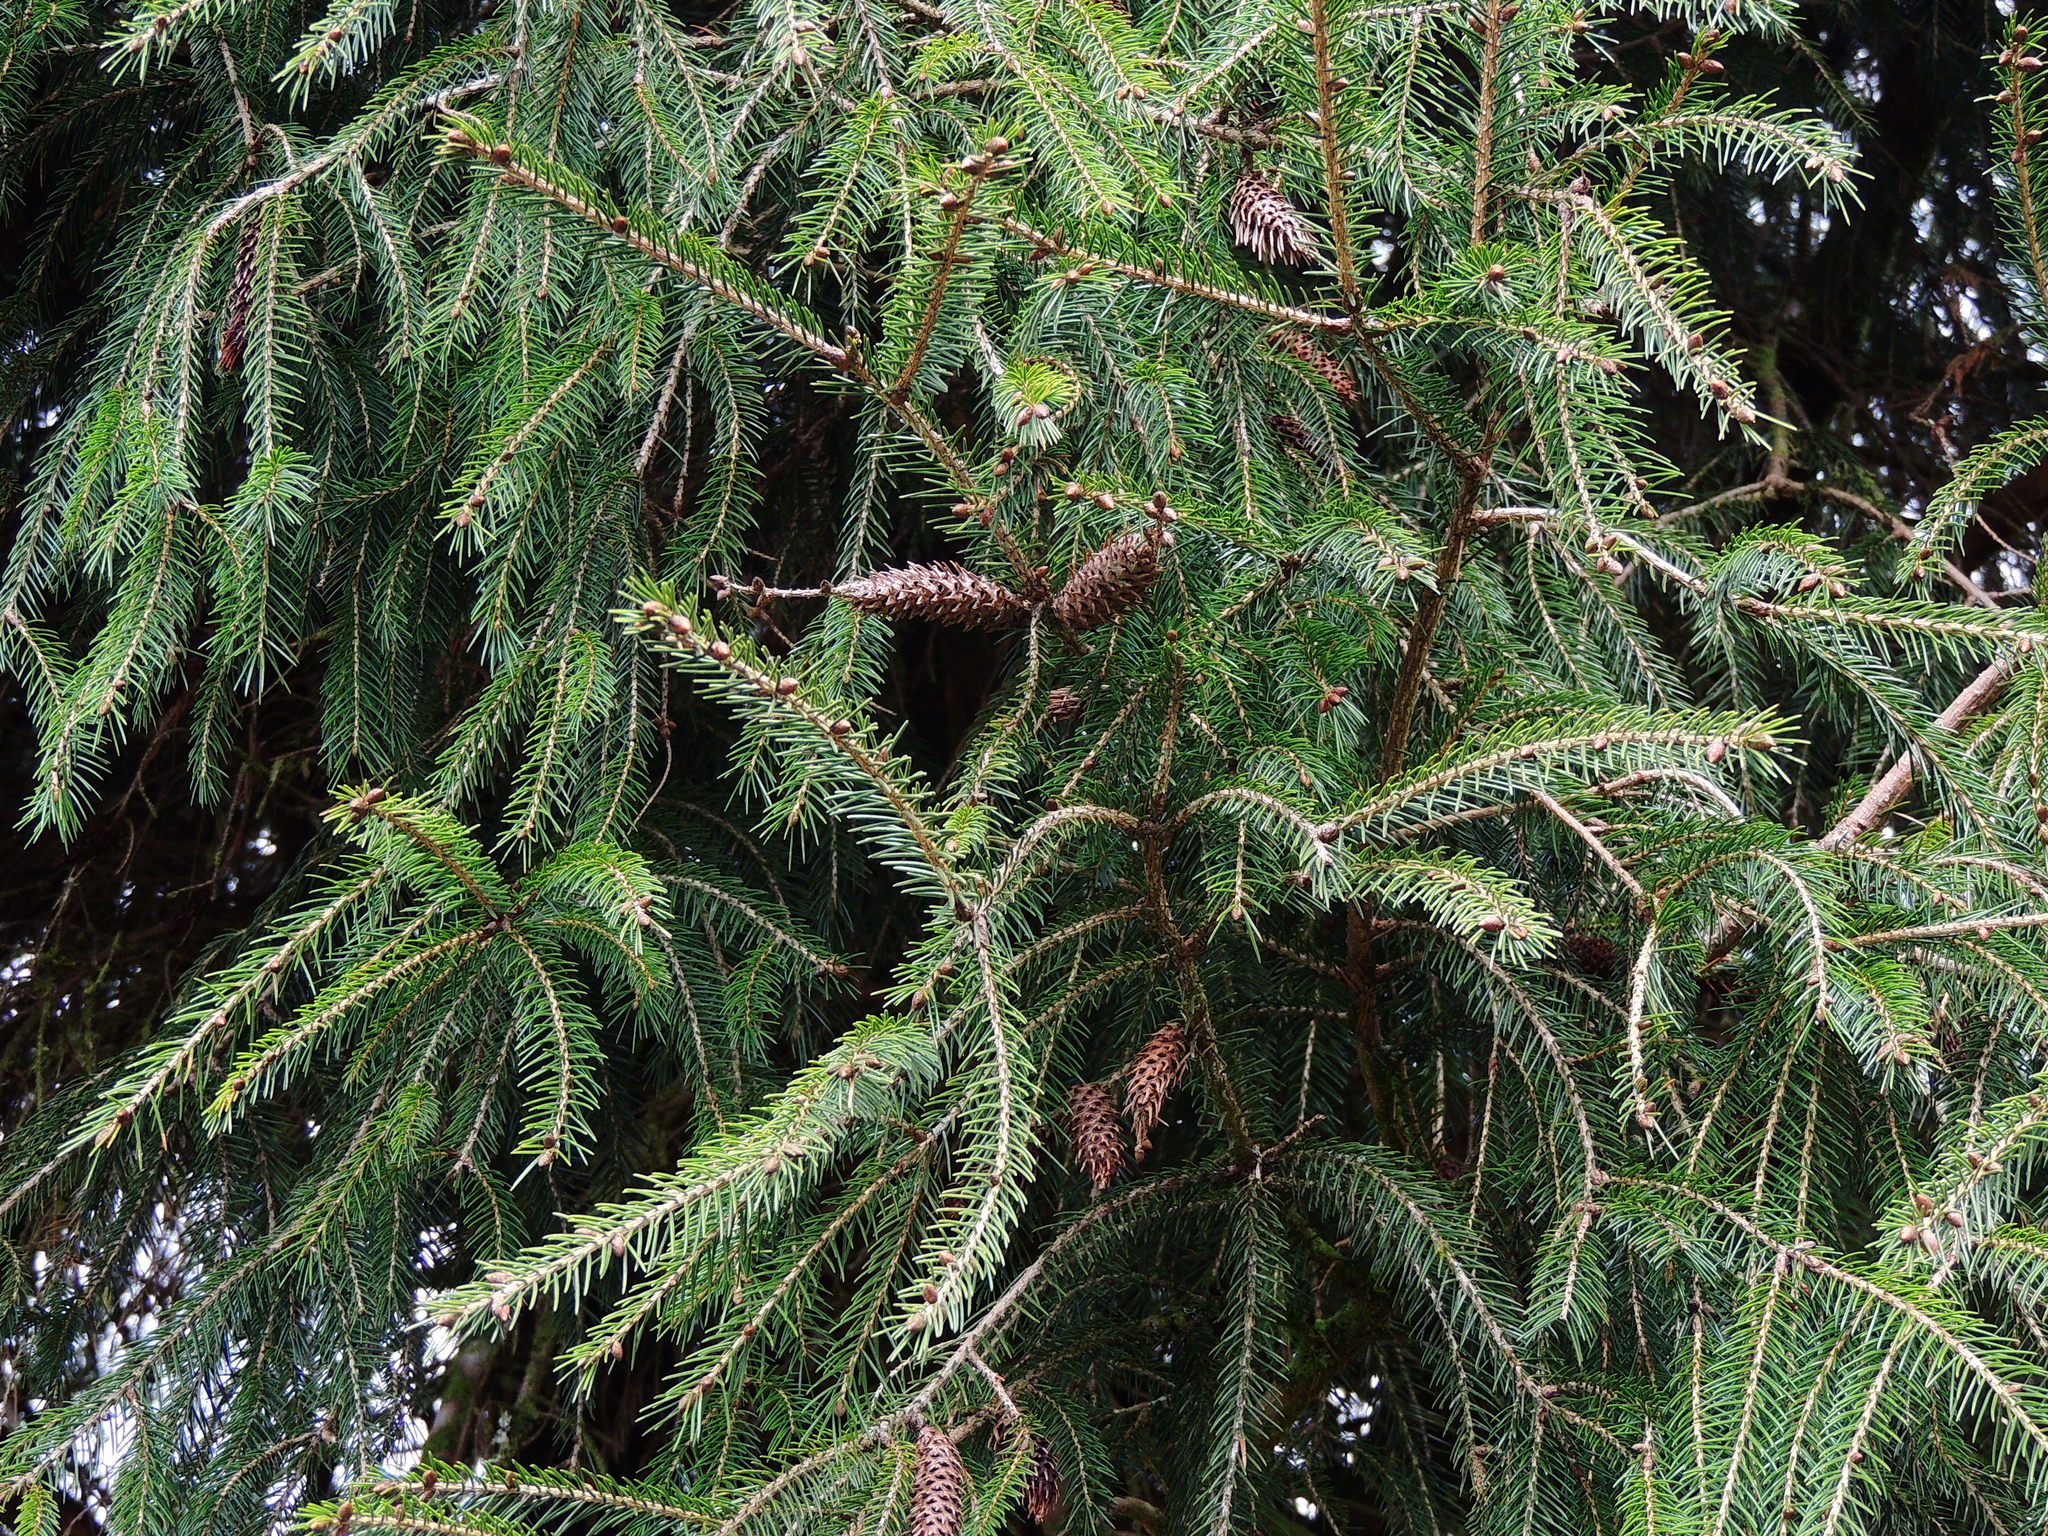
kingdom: Plantae
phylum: Tracheophyta
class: Pinopsida
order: Pinales
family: Pinaceae
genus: Picea
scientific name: Picea morrisonicola
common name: Mount morrison spruce
